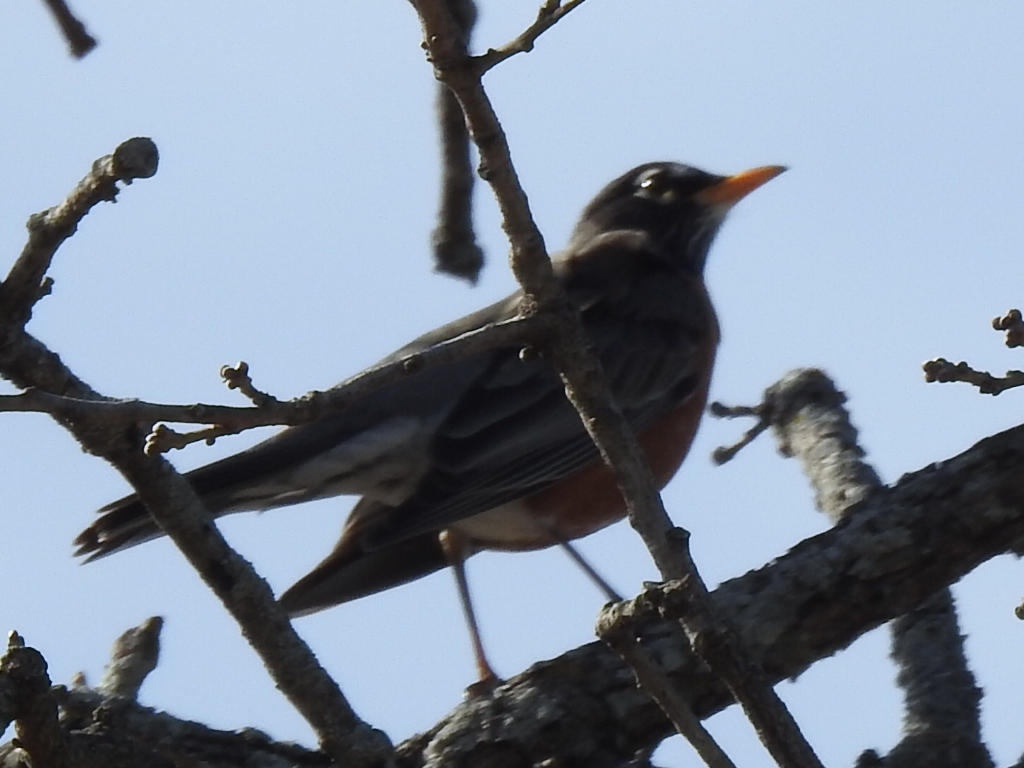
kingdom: Animalia
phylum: Chordata
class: Aves
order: Passeriformes
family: Turdidae
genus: Turdus
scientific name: Turdus migratorius
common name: American robin
